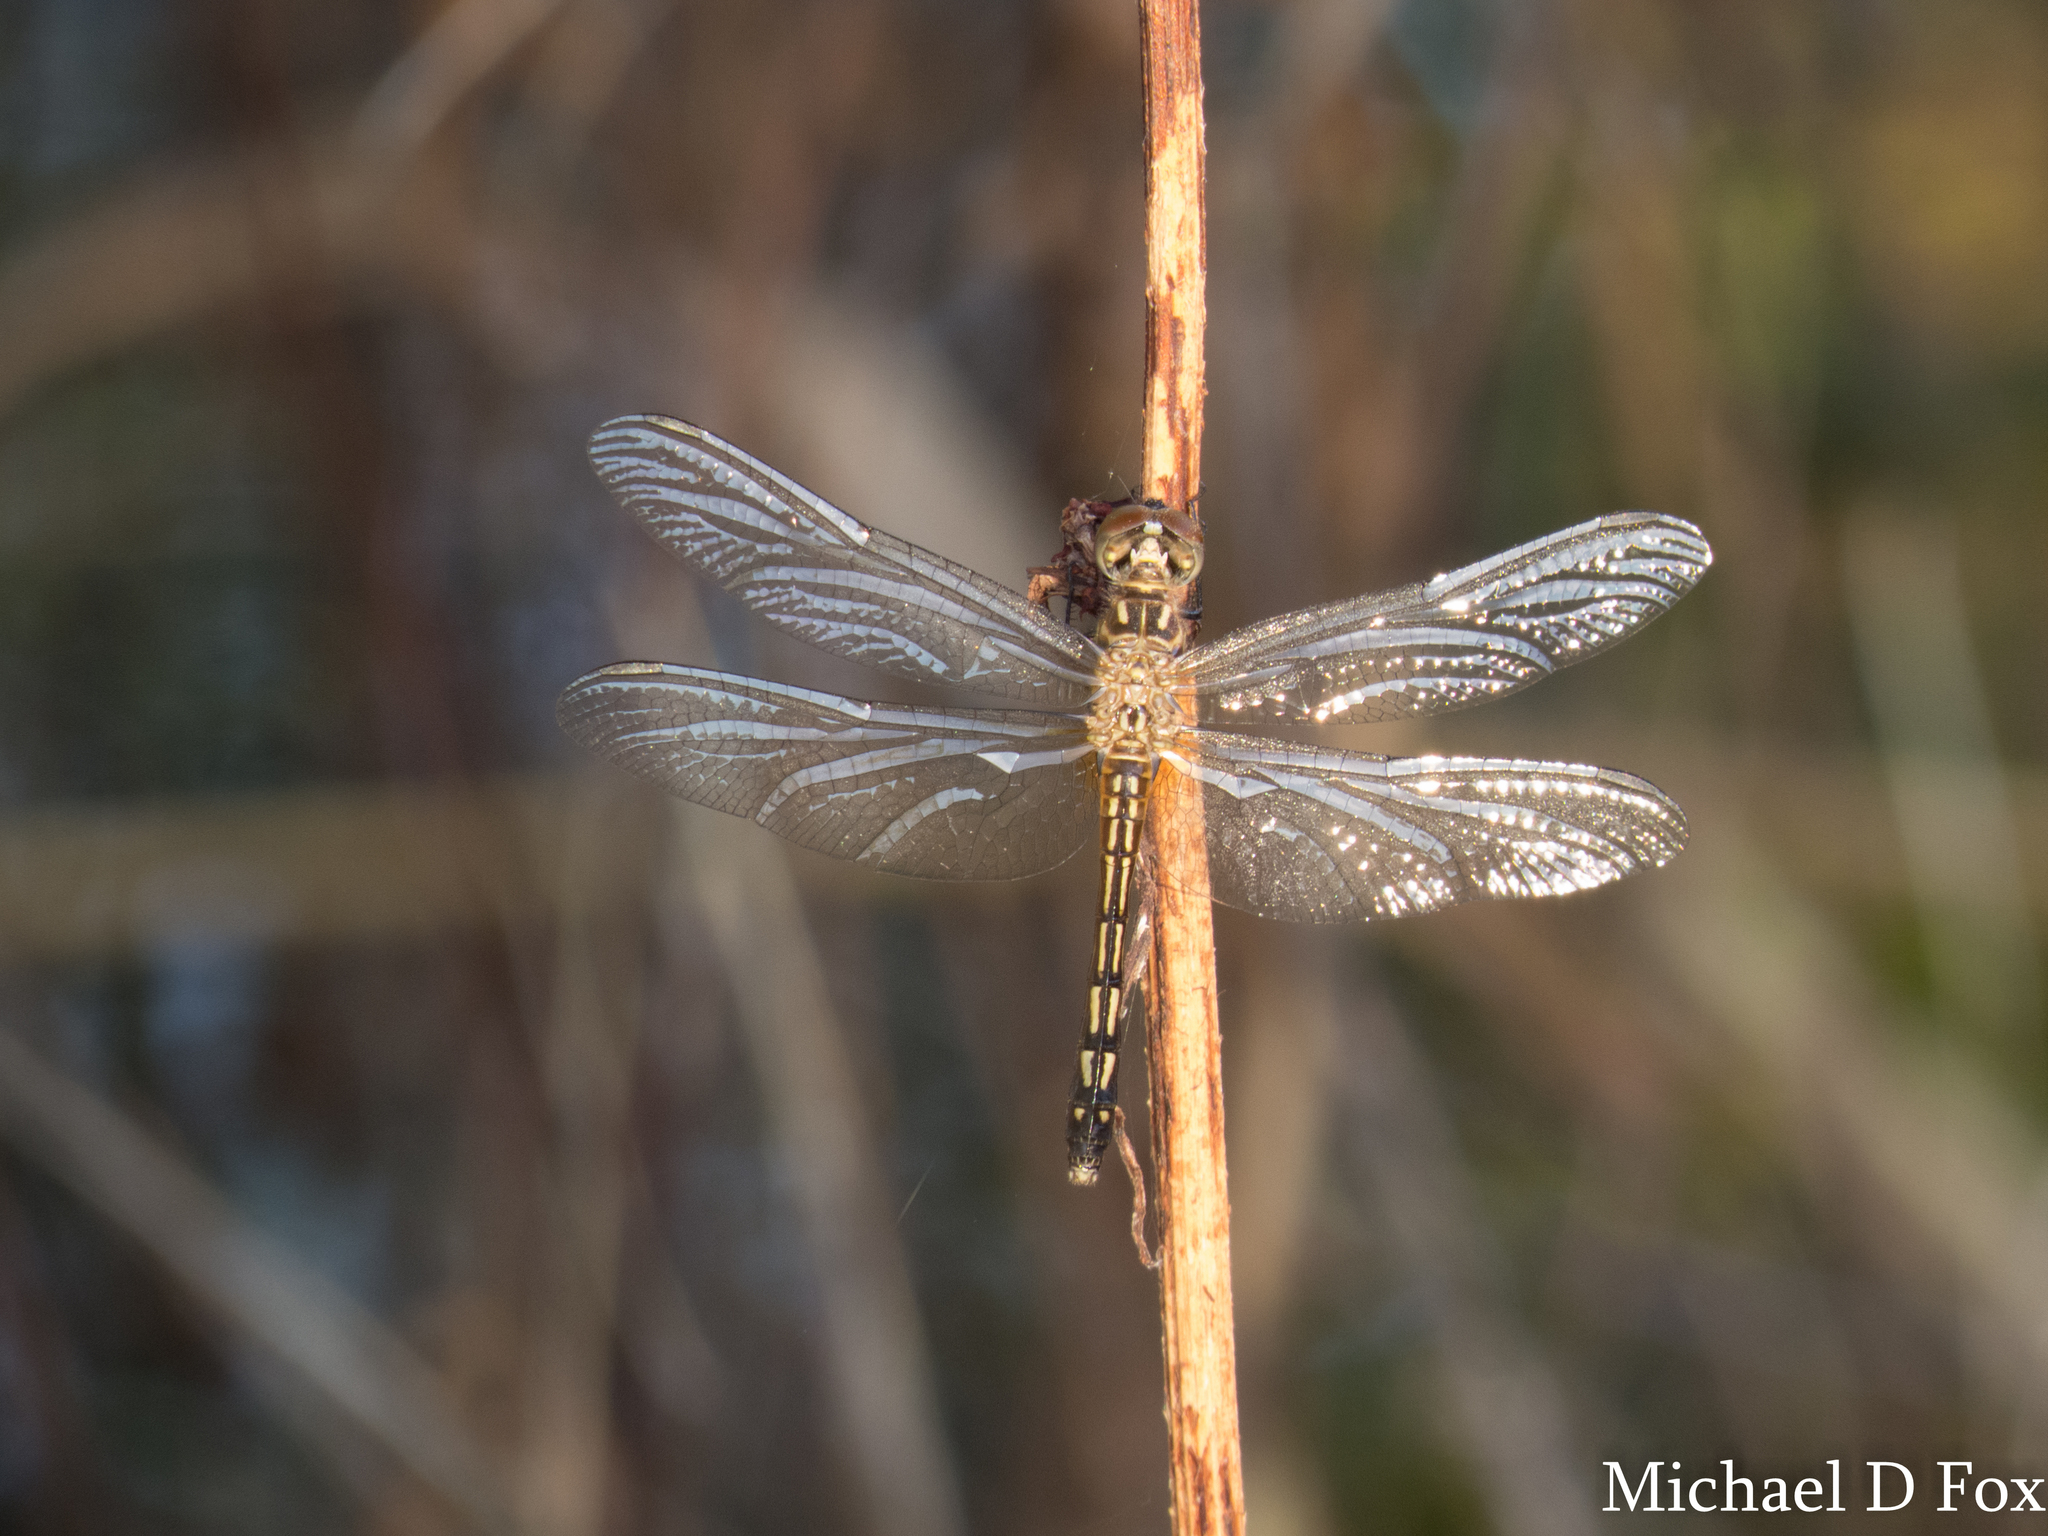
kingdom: Animalia
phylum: Arthropoda
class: Insecta
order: Odonata
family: Libellulidae
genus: Pachydiplax
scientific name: Pachydiplax longipennis
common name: Blue dasher
